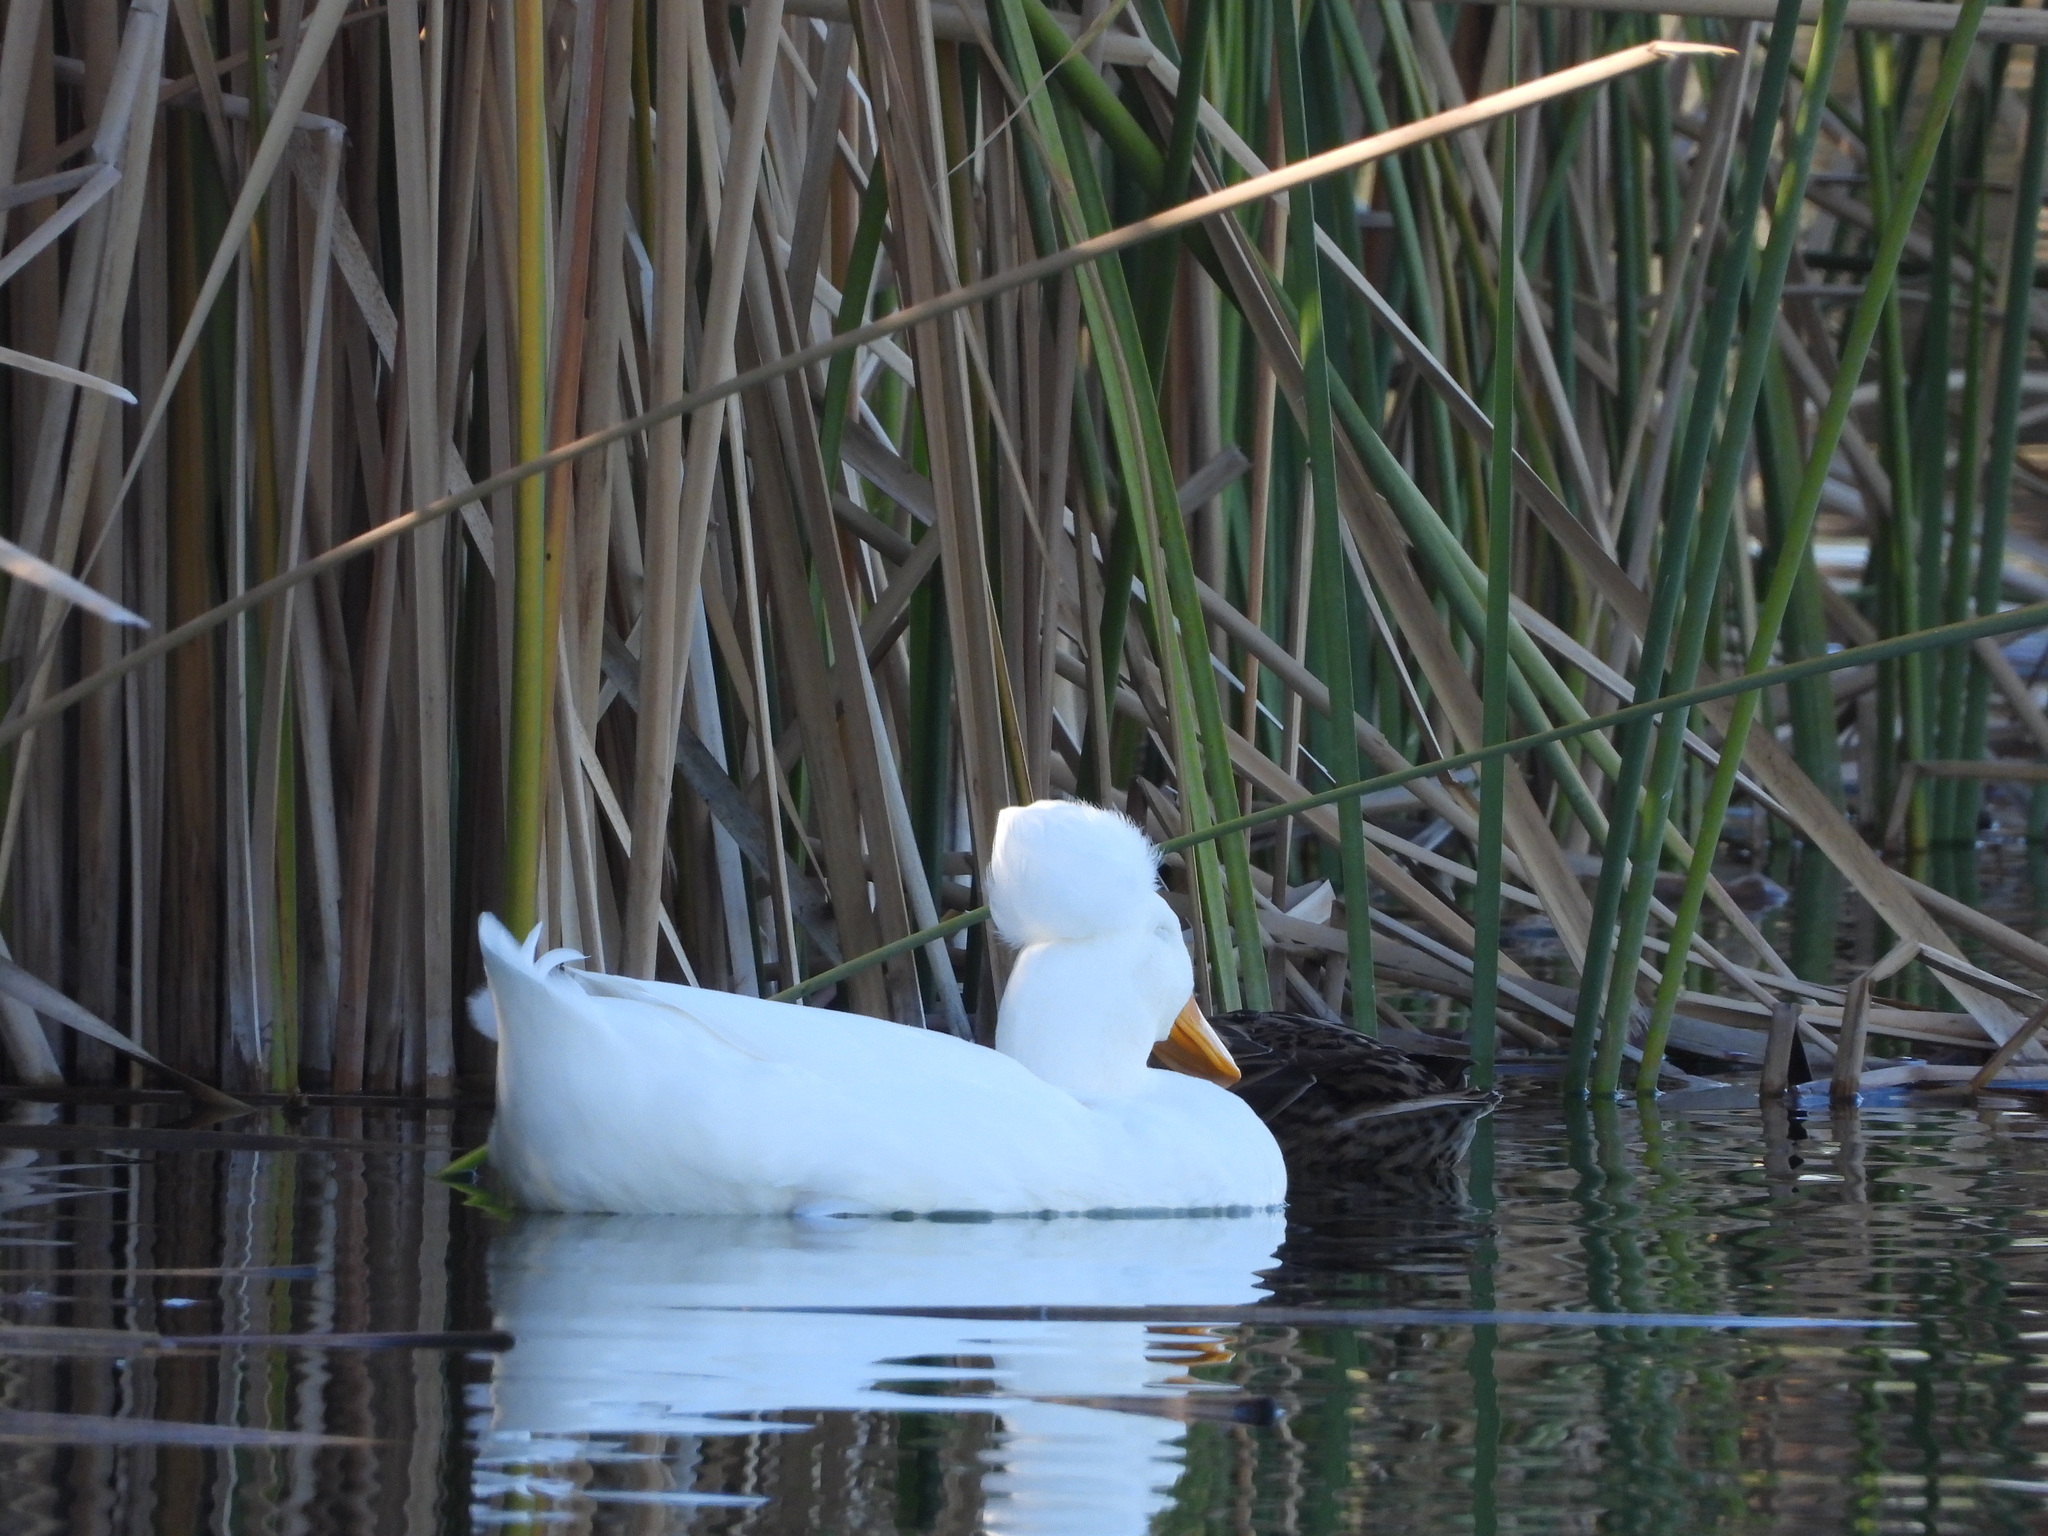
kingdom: Animalia
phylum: Chordata
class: Aves
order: Anseriformes
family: Anatidae
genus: Anas
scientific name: Anas platyrhynchos
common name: Mallard
